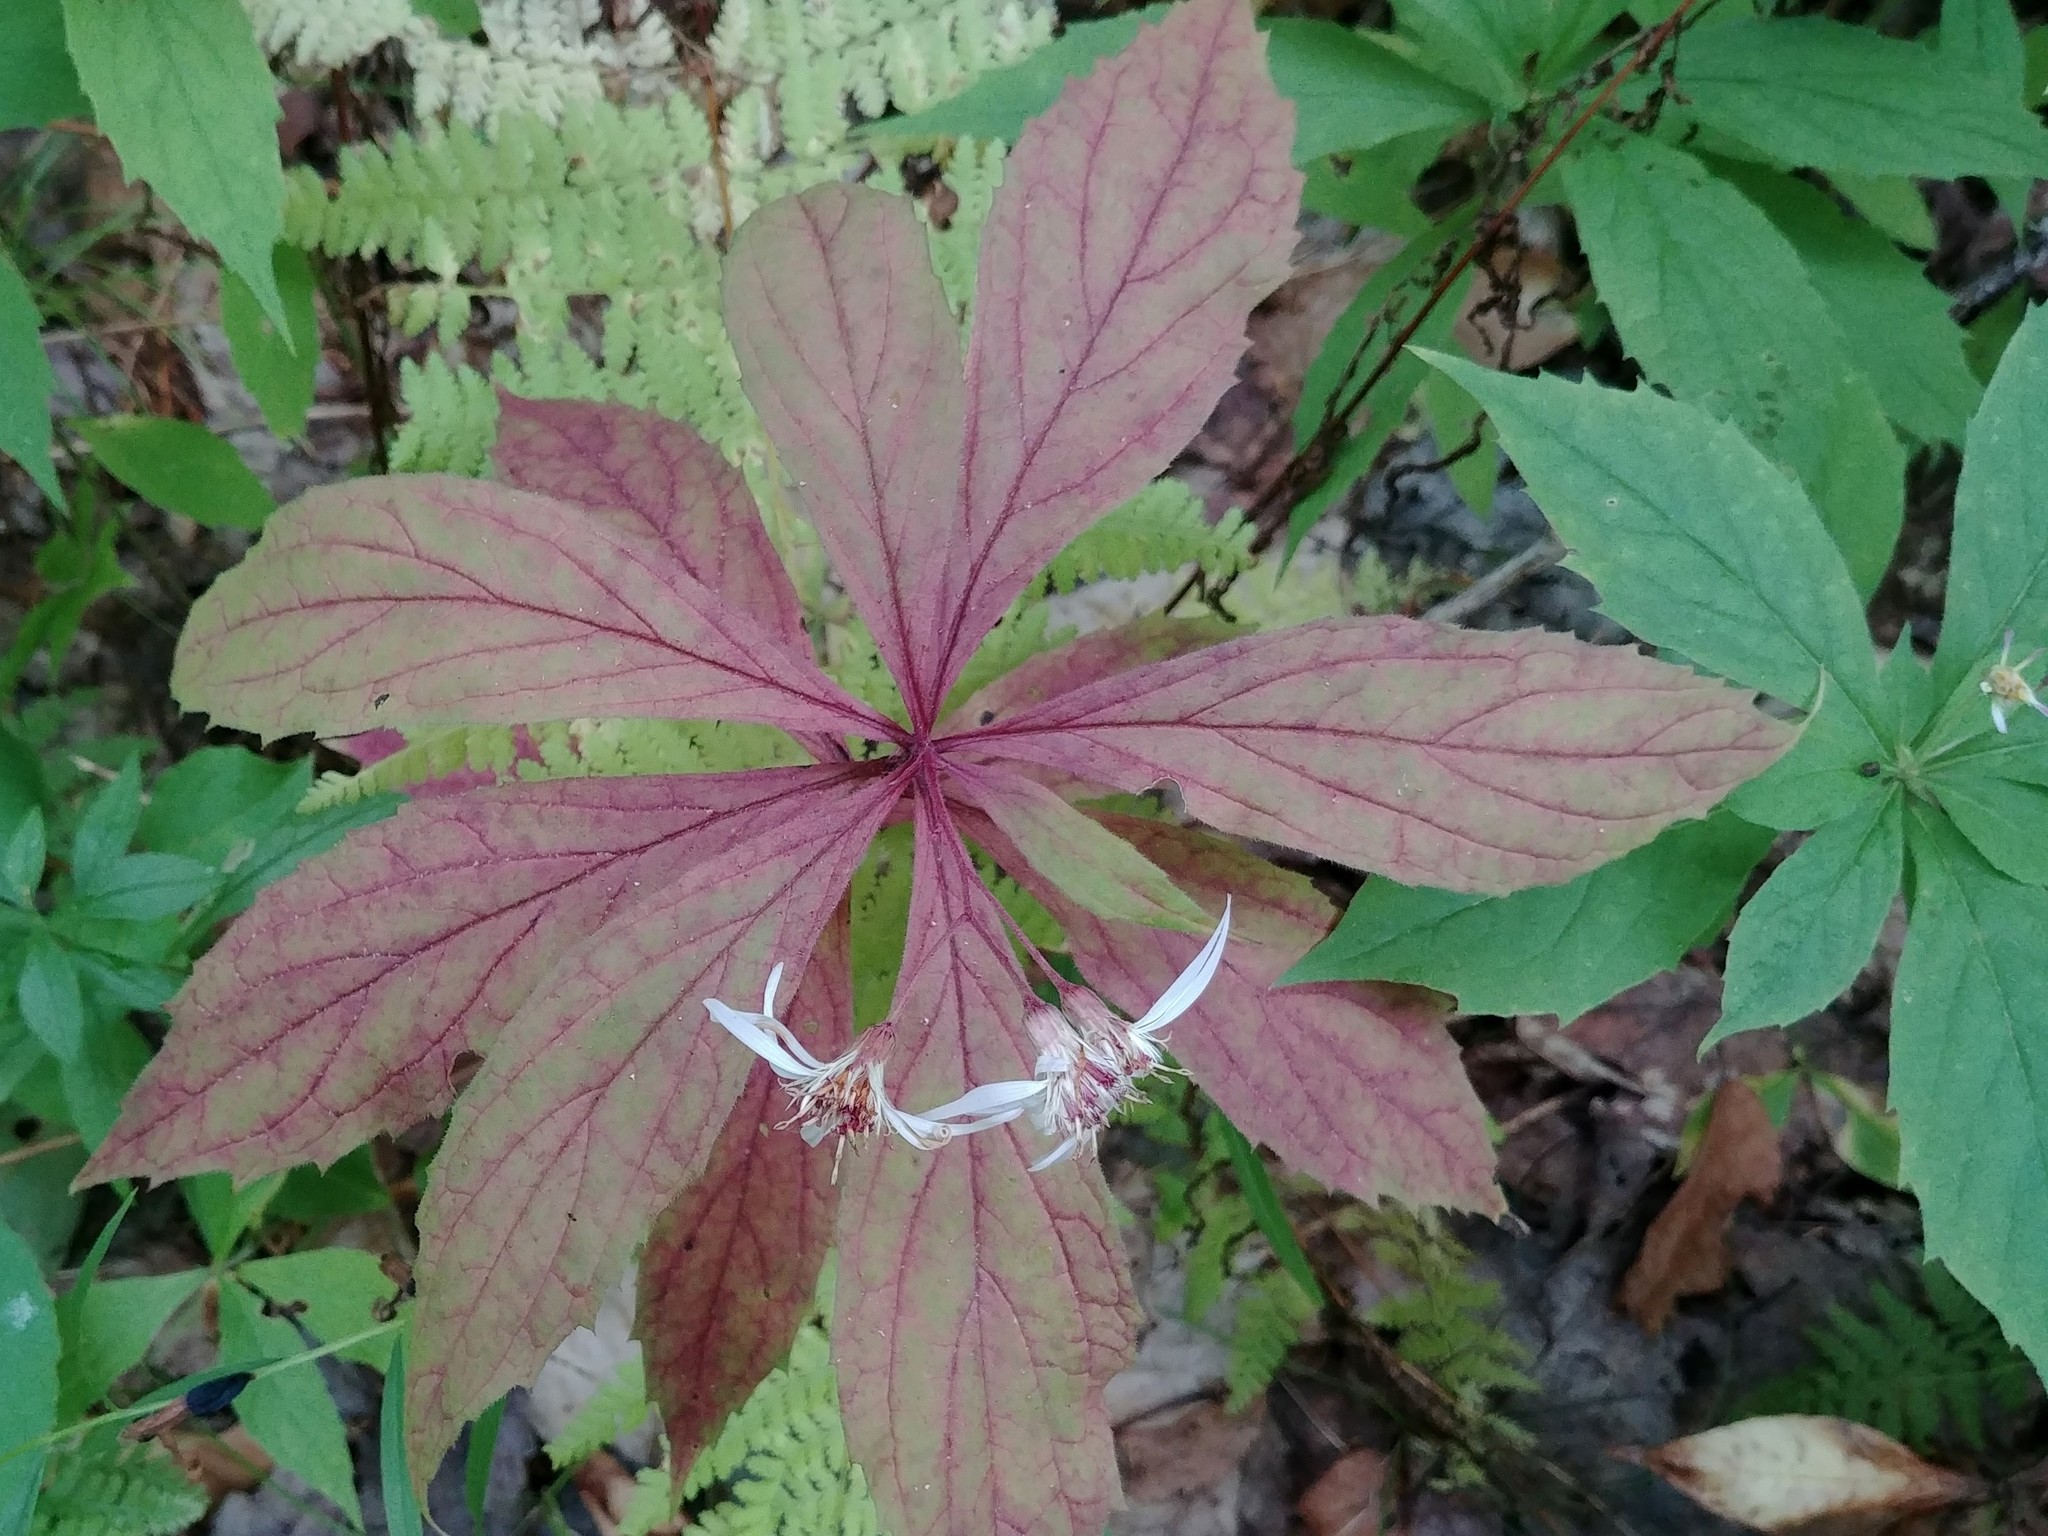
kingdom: Plantae
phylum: Tracheophyta
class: Magnoliopsida
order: Asterales
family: Asteraceae
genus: Oclemena
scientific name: Oclemena acuminata
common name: Mountain aster
